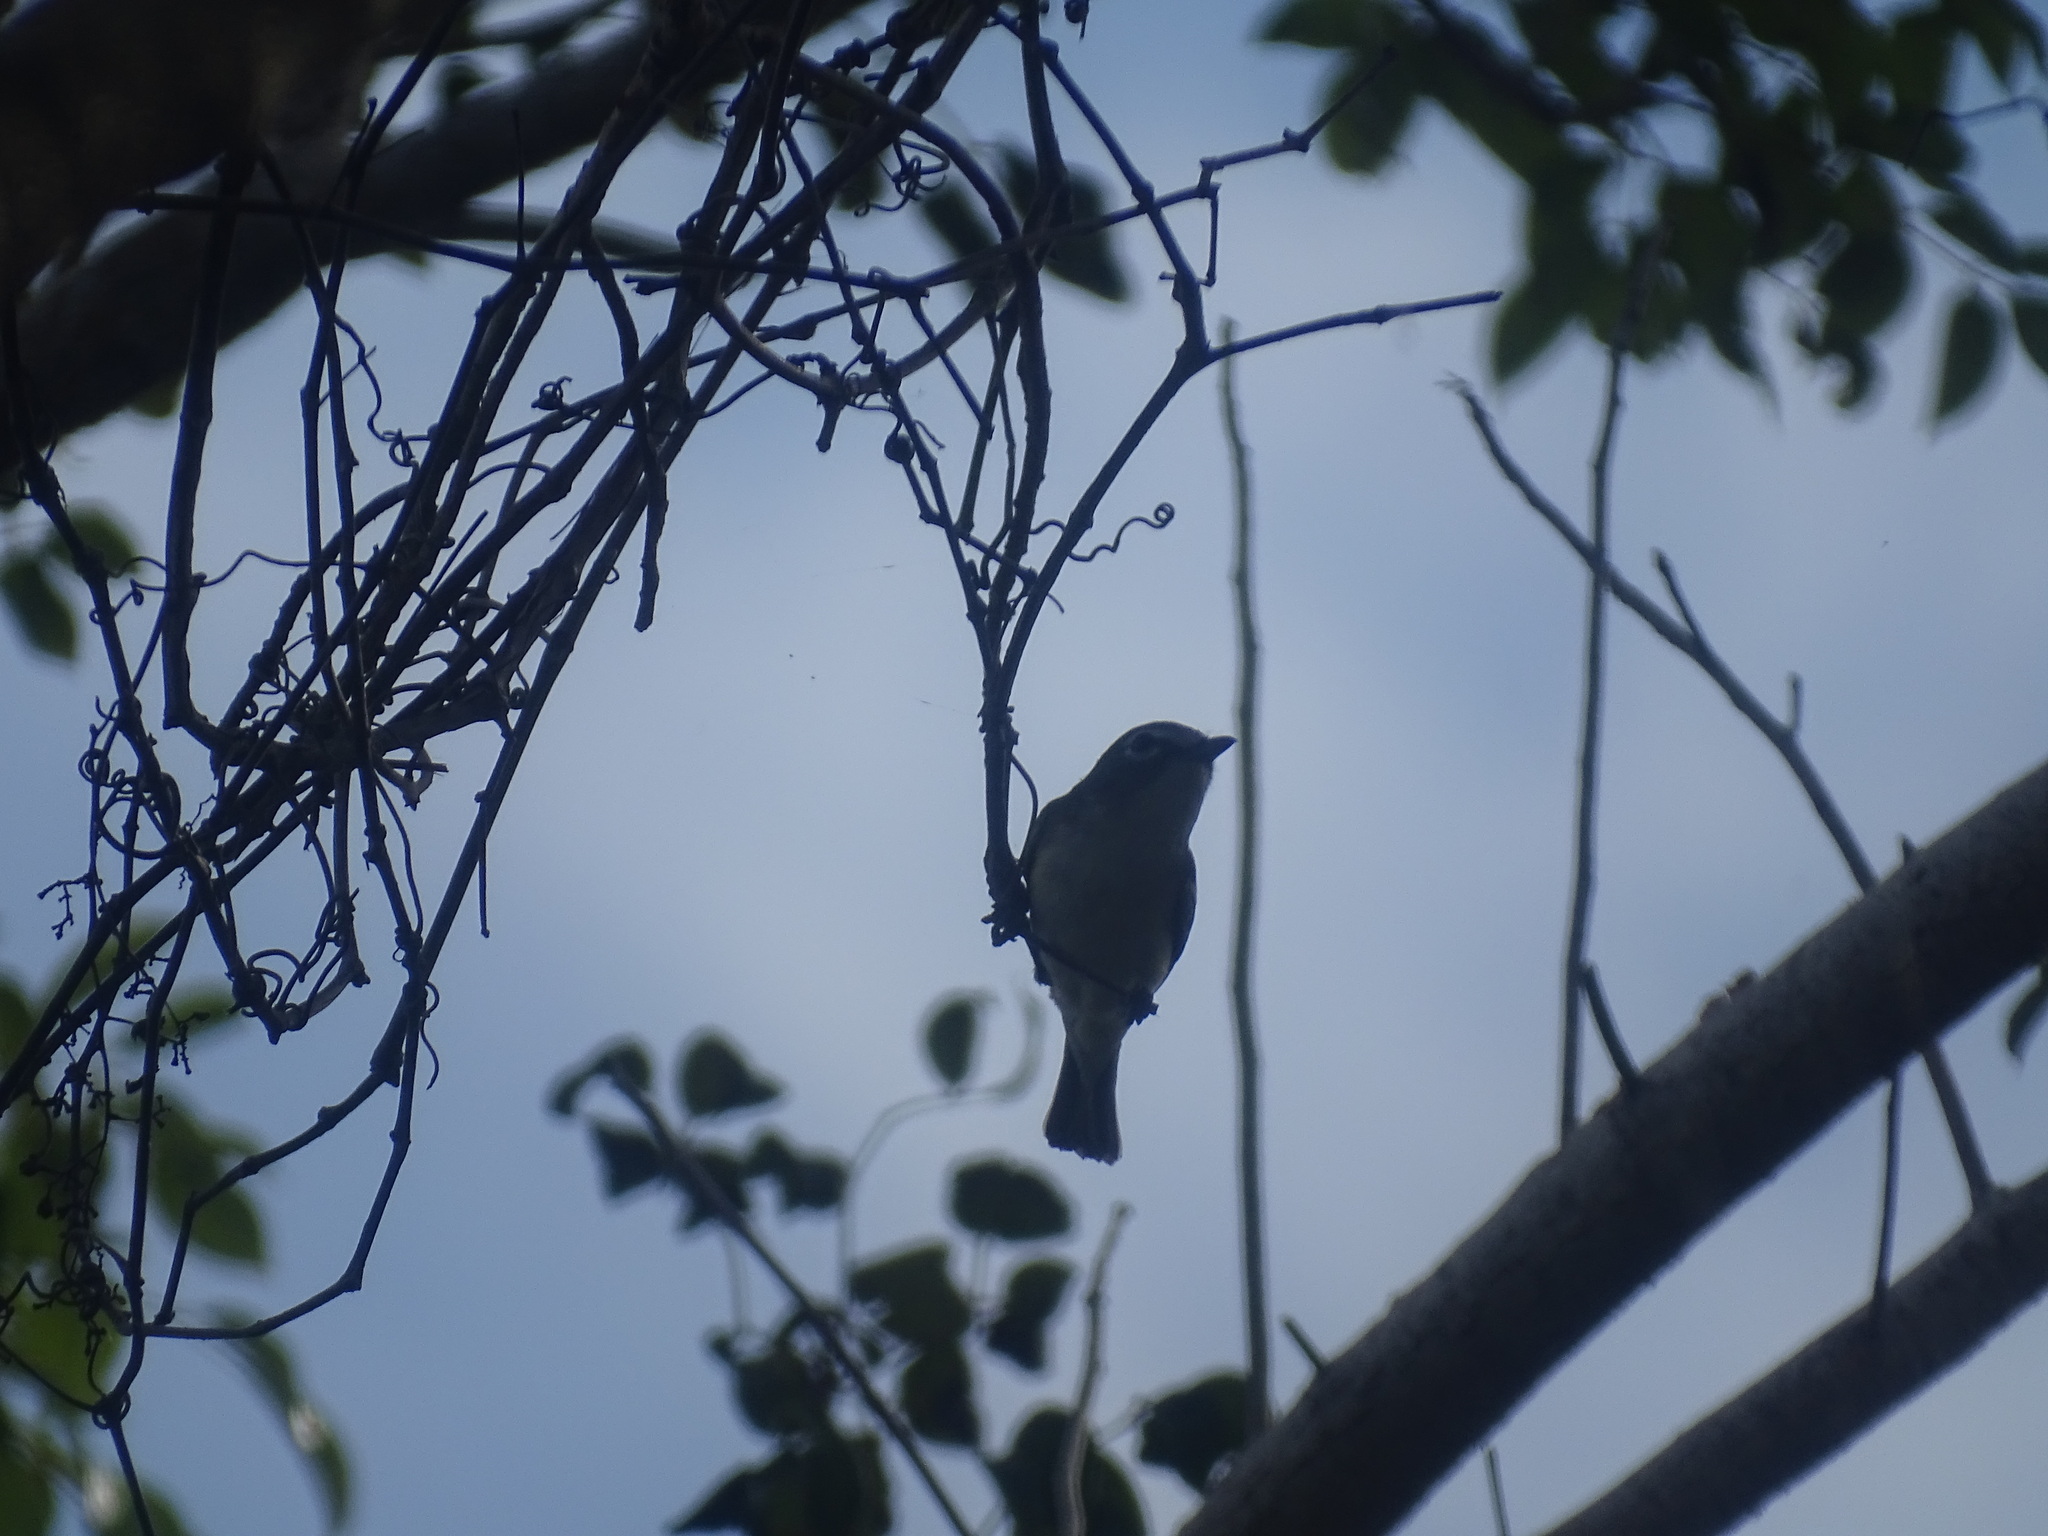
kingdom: Animalia
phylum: Chordata
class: Aves
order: Passeriformes
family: Vireonidae
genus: Vireo
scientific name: Vireo solitarius
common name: Blue-headed vireo
